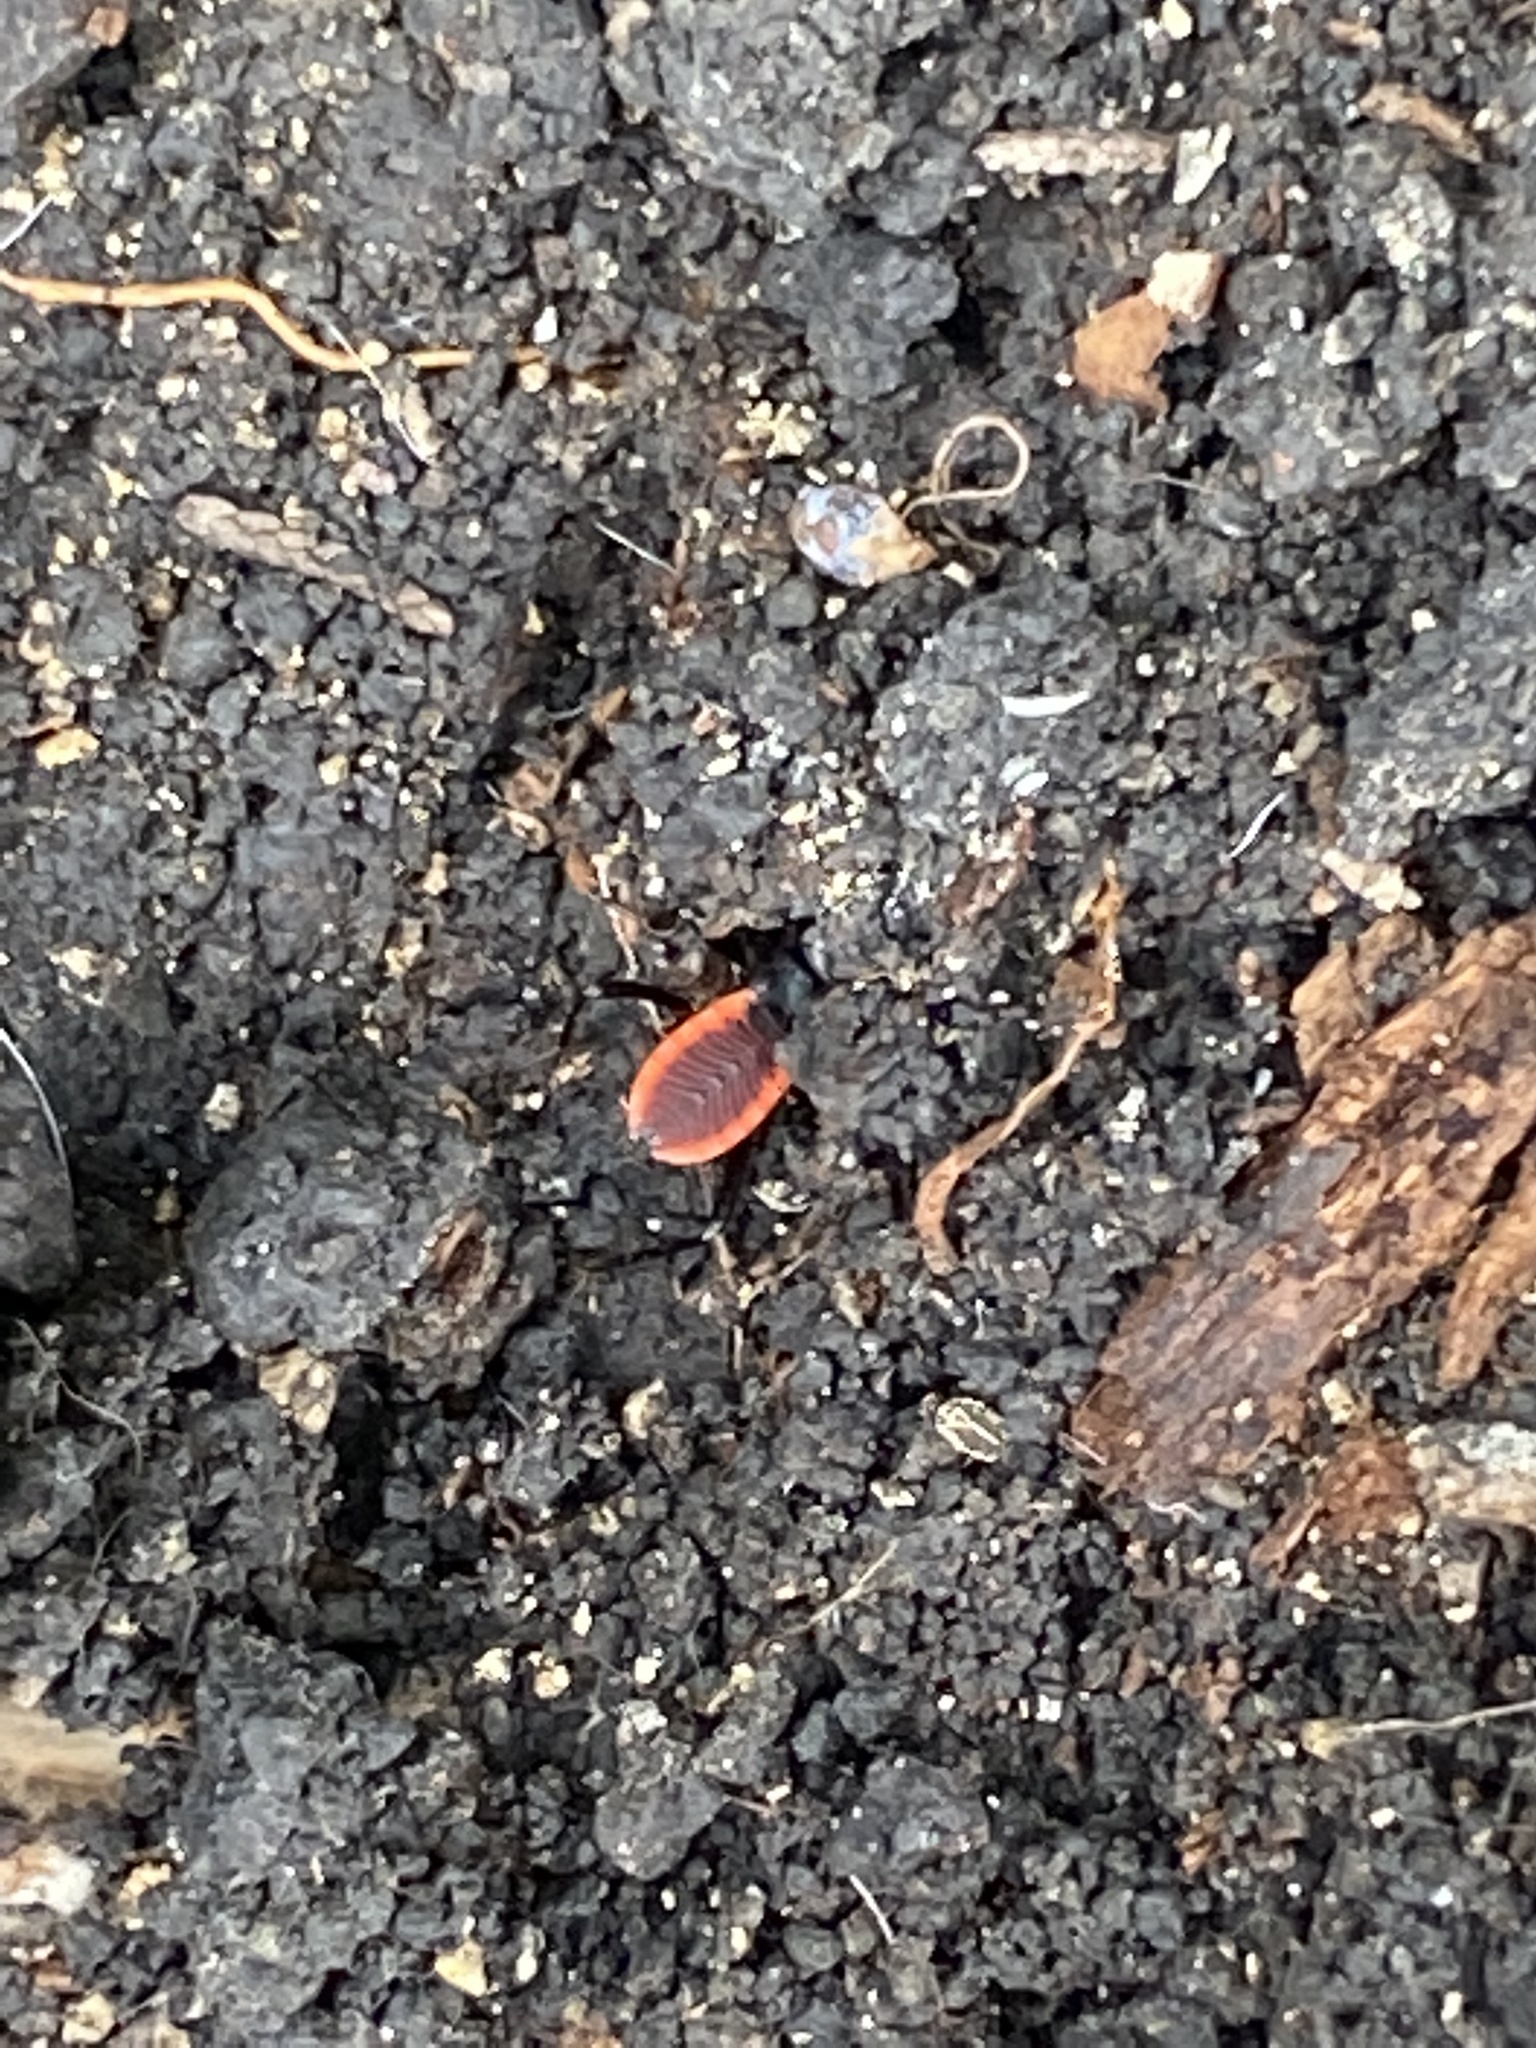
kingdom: Animalia
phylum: Arthropoda
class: Insecta
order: Hemiptera
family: Reduviidae
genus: Melanolestes
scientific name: Melanolestes picipes
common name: Assassin bug
